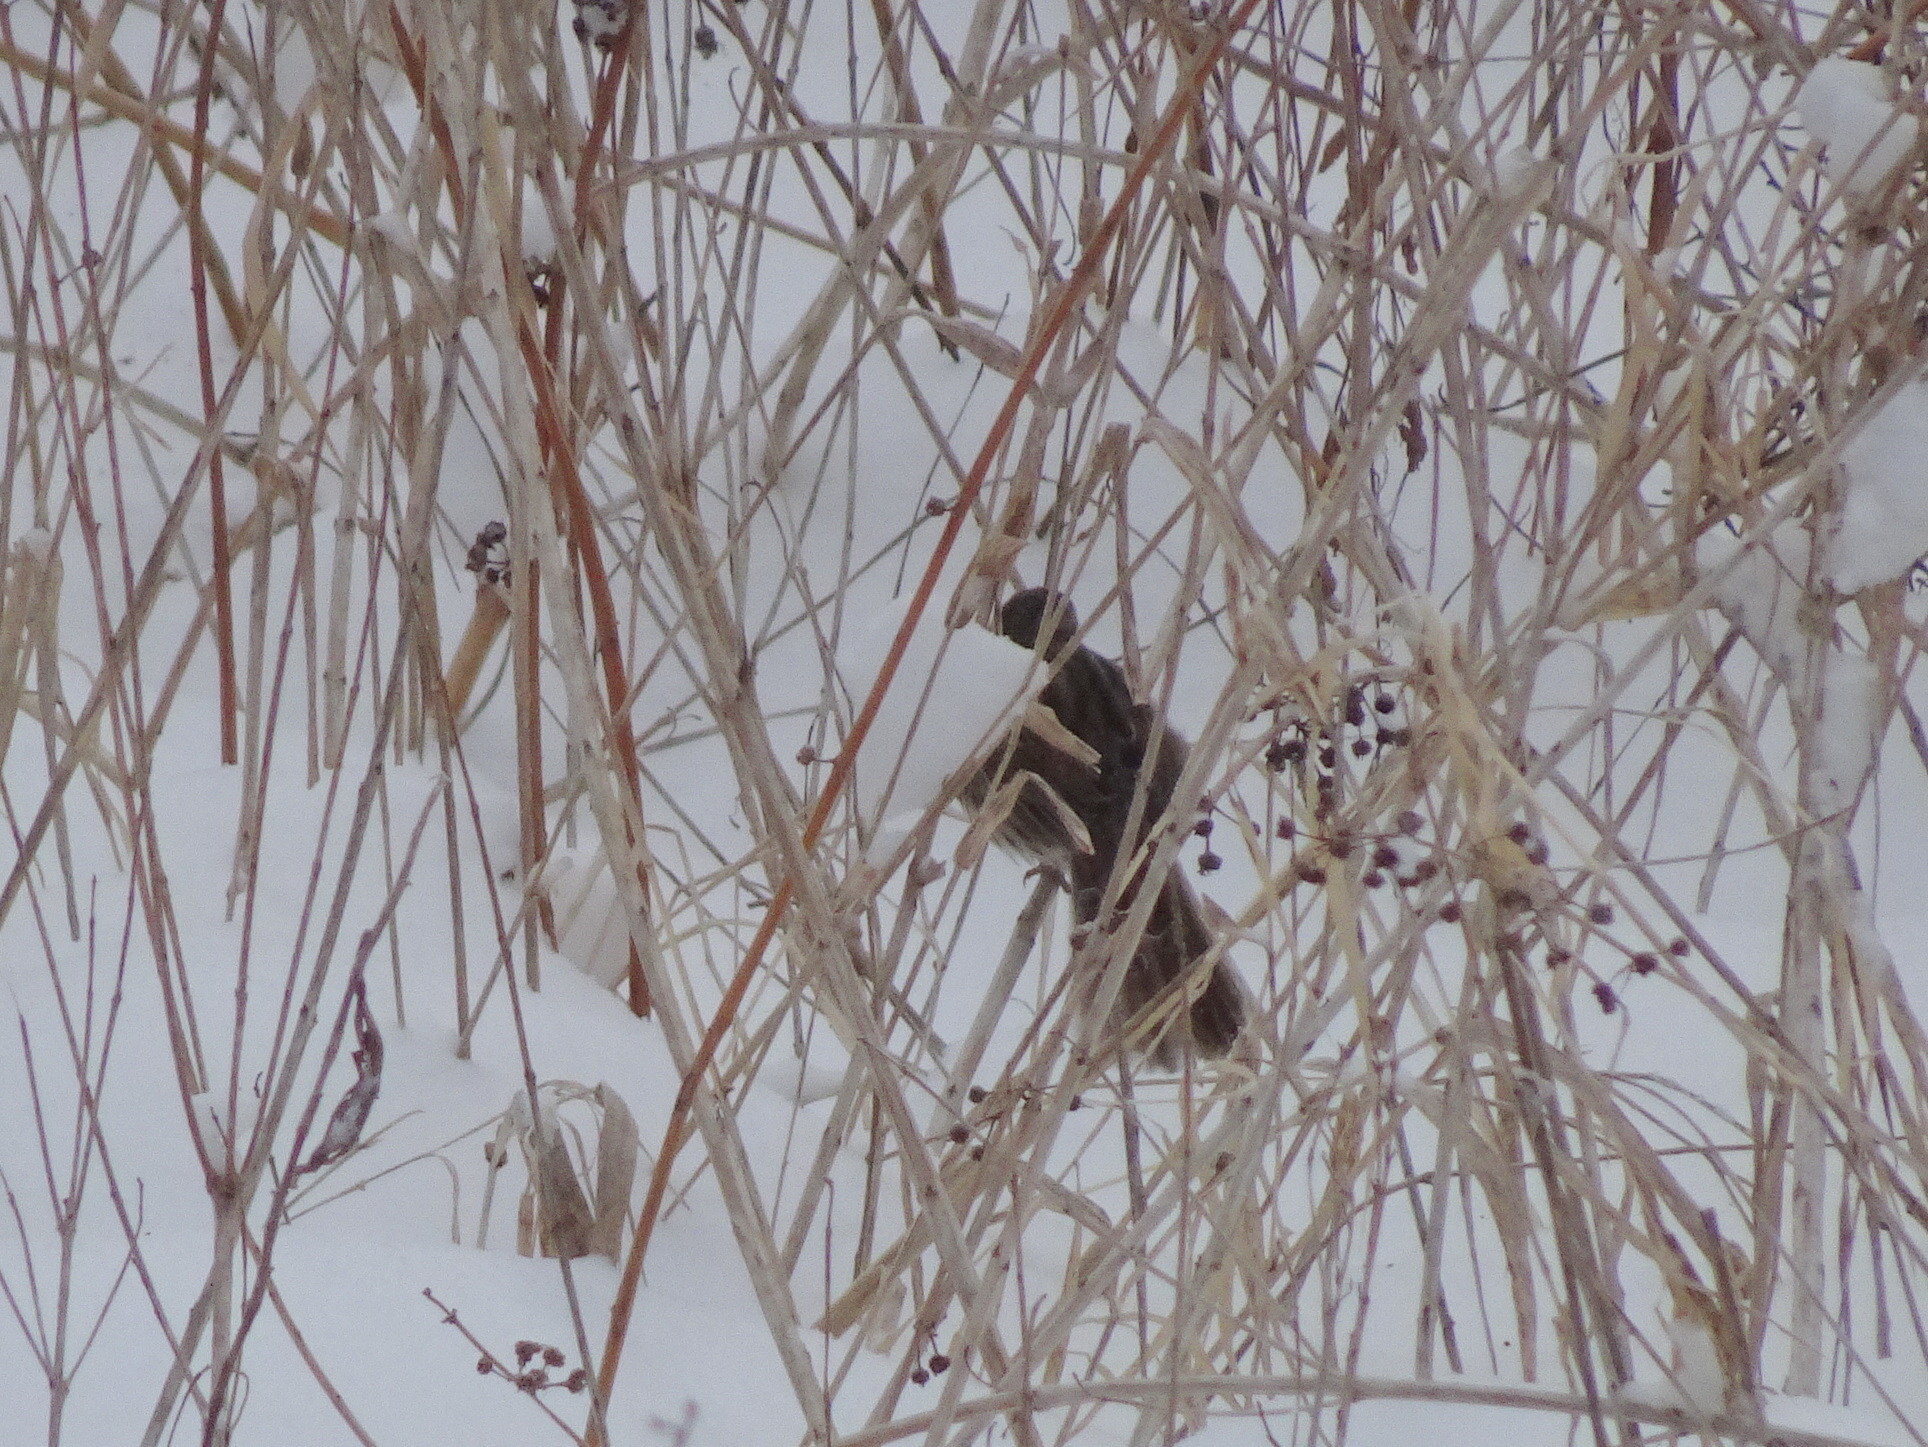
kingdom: Animalia
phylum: Chordata
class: Aves
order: Passeriformes
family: Passerellidae
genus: Melospiza
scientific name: Melospiza melodia
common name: Song sparrow
